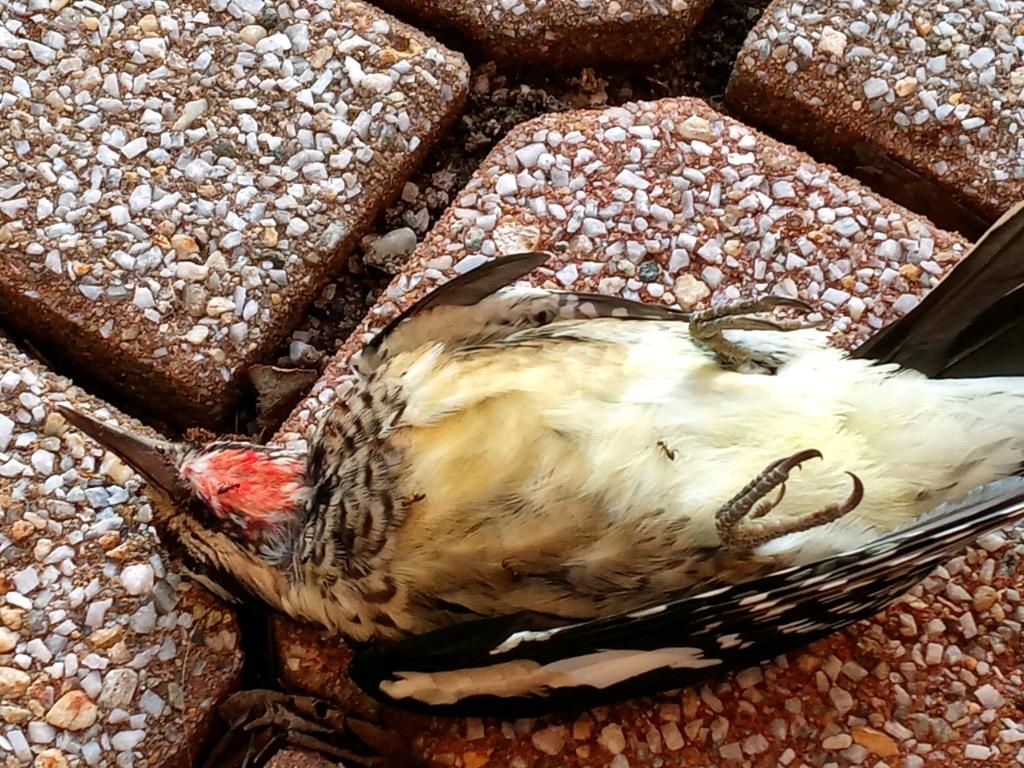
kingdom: Animalia
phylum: Chordata
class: Aves
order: Piciformes
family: Picidae
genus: Sphyrapicus
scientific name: Sphyrapicus varius
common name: Yellow-bellied sapsucker
